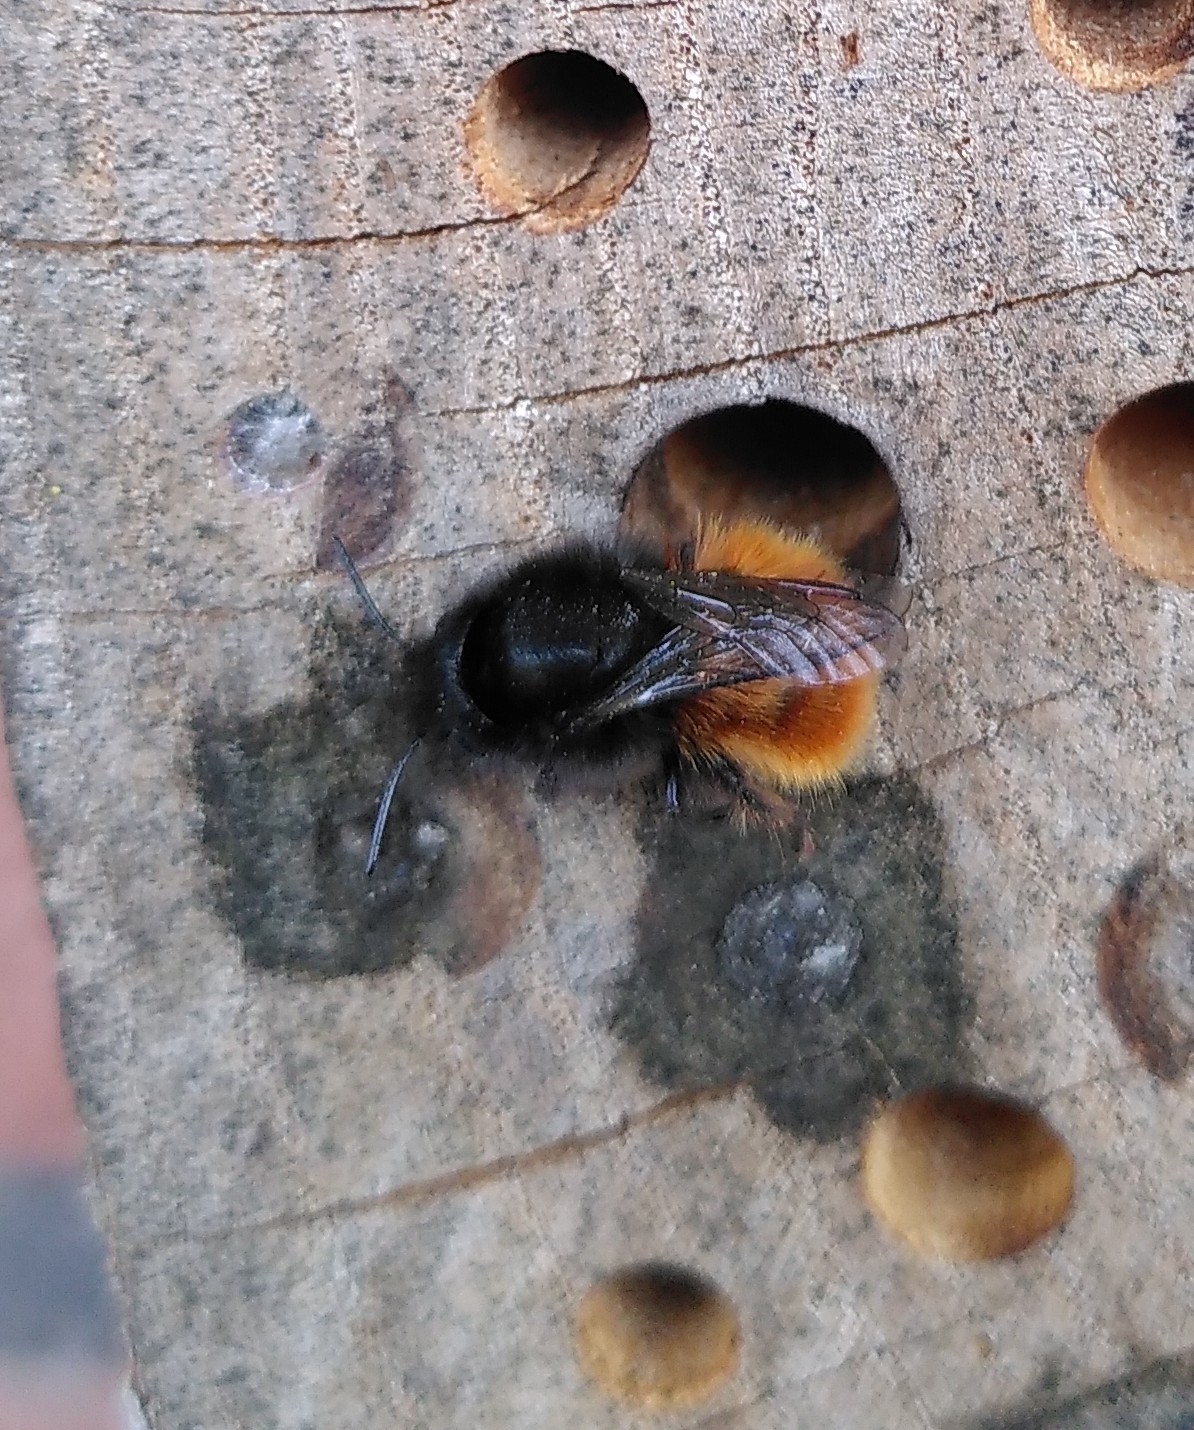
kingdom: Animalia
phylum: Arthropoda
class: Insecta
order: Hymenoptera
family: Megachilidae
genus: Osmia
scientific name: Osmia cornuta
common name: Mason bee
